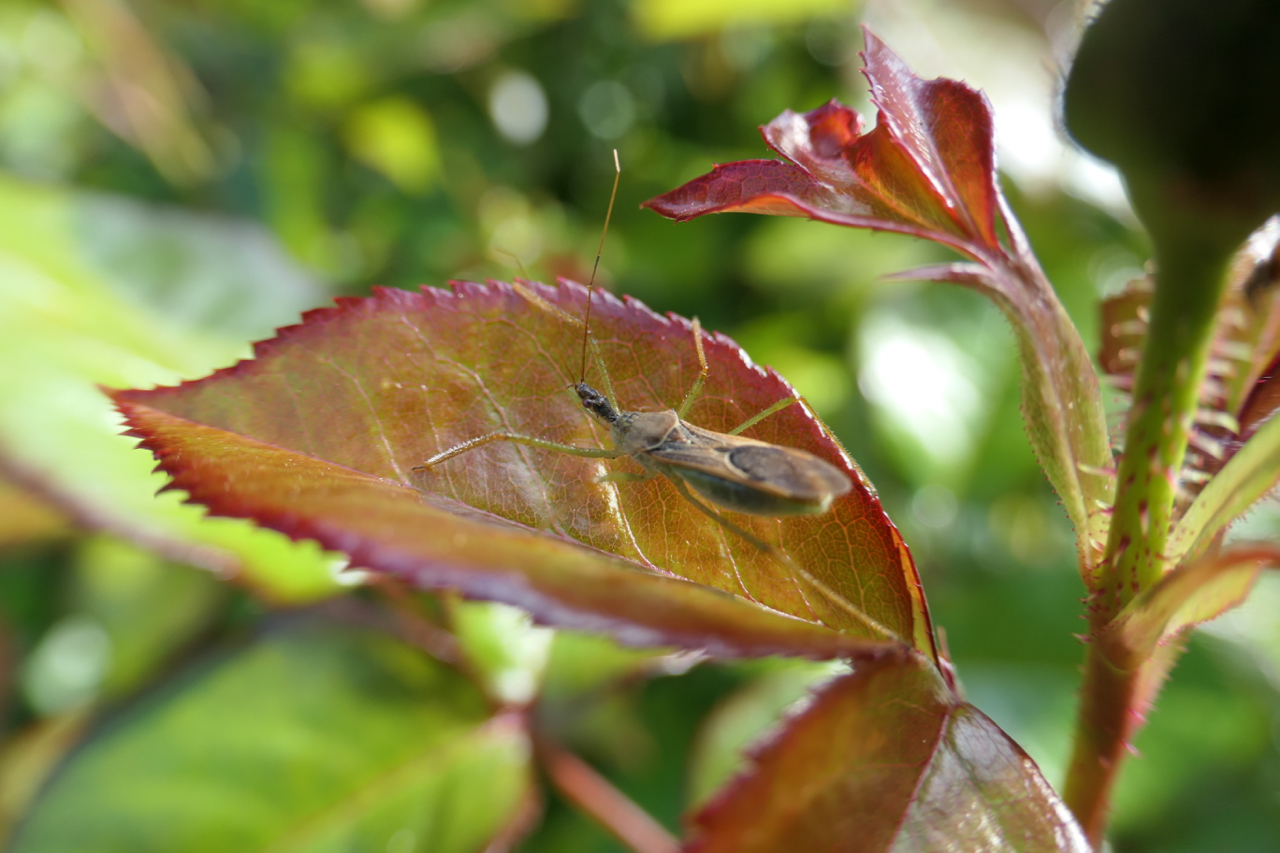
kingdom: Animalia
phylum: Arthropoda
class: Insecta
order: Hemiptera
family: Reduviidae
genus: Zelus
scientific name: Zelus renardii
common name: Assassin bug
